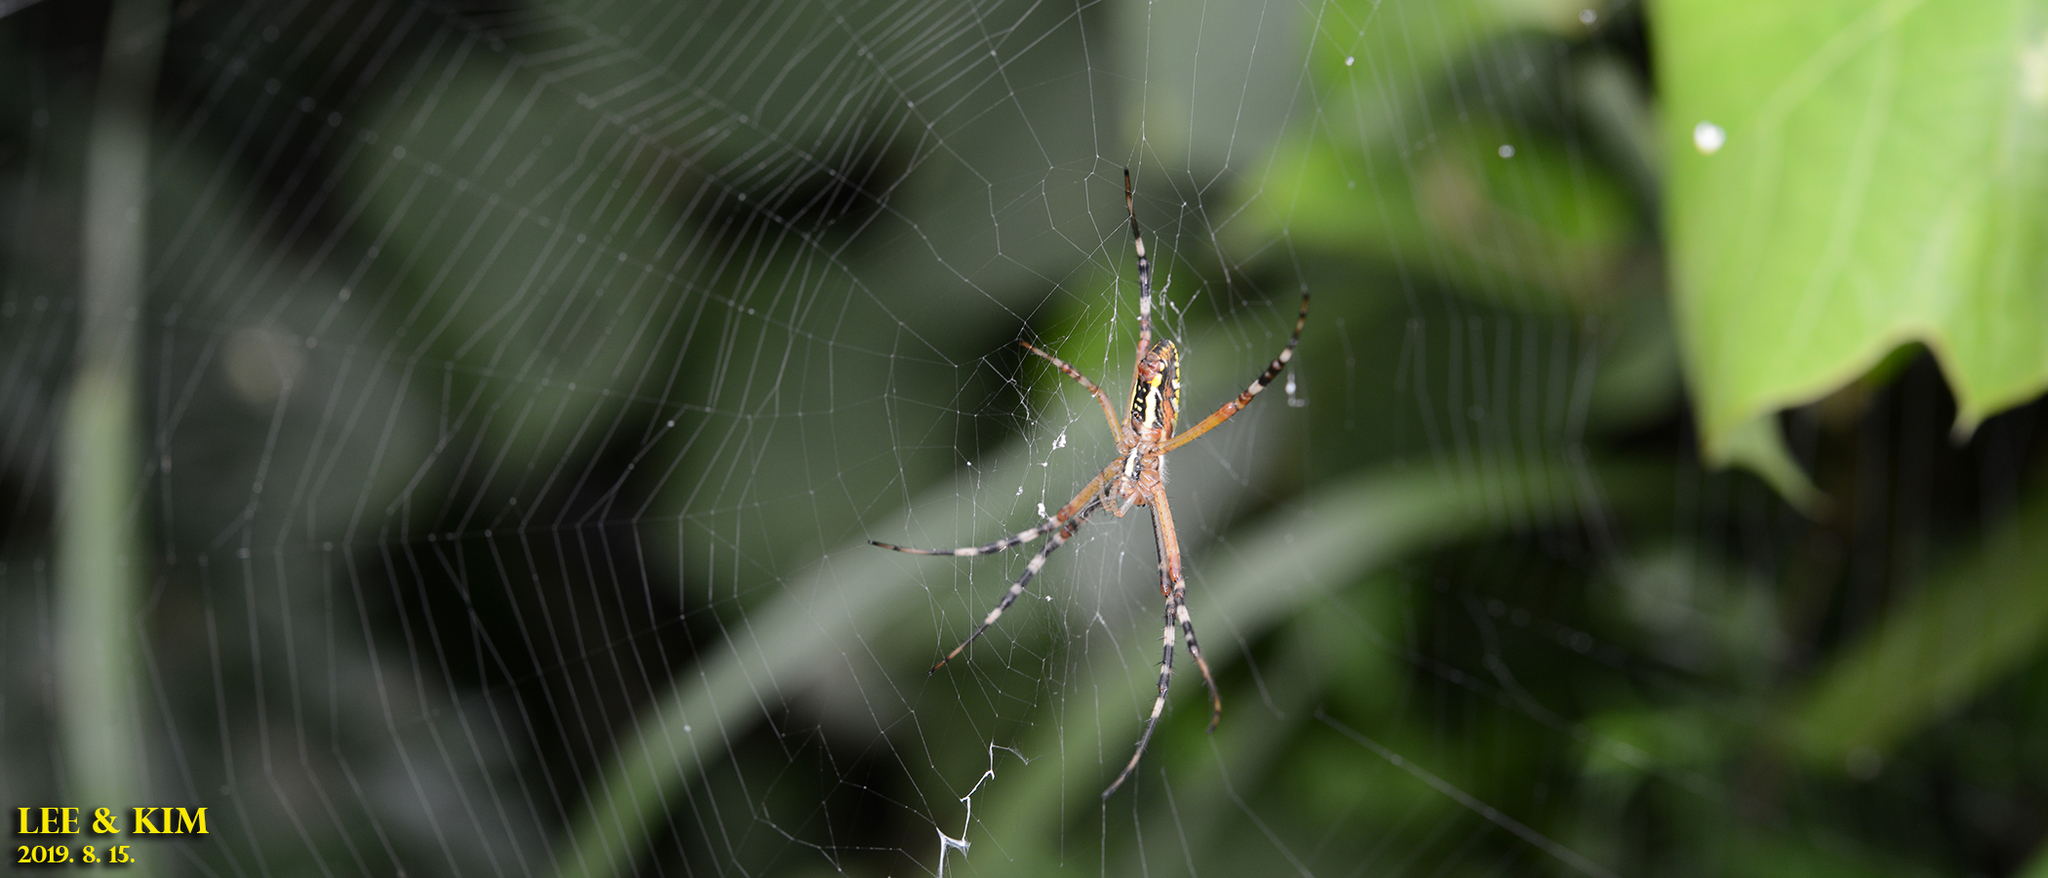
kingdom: Animalia
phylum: Arthropoda
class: Arachnida
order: Araneae
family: Araneidae
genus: Argiope
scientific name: Argiope bruennichi
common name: Wasp spider
